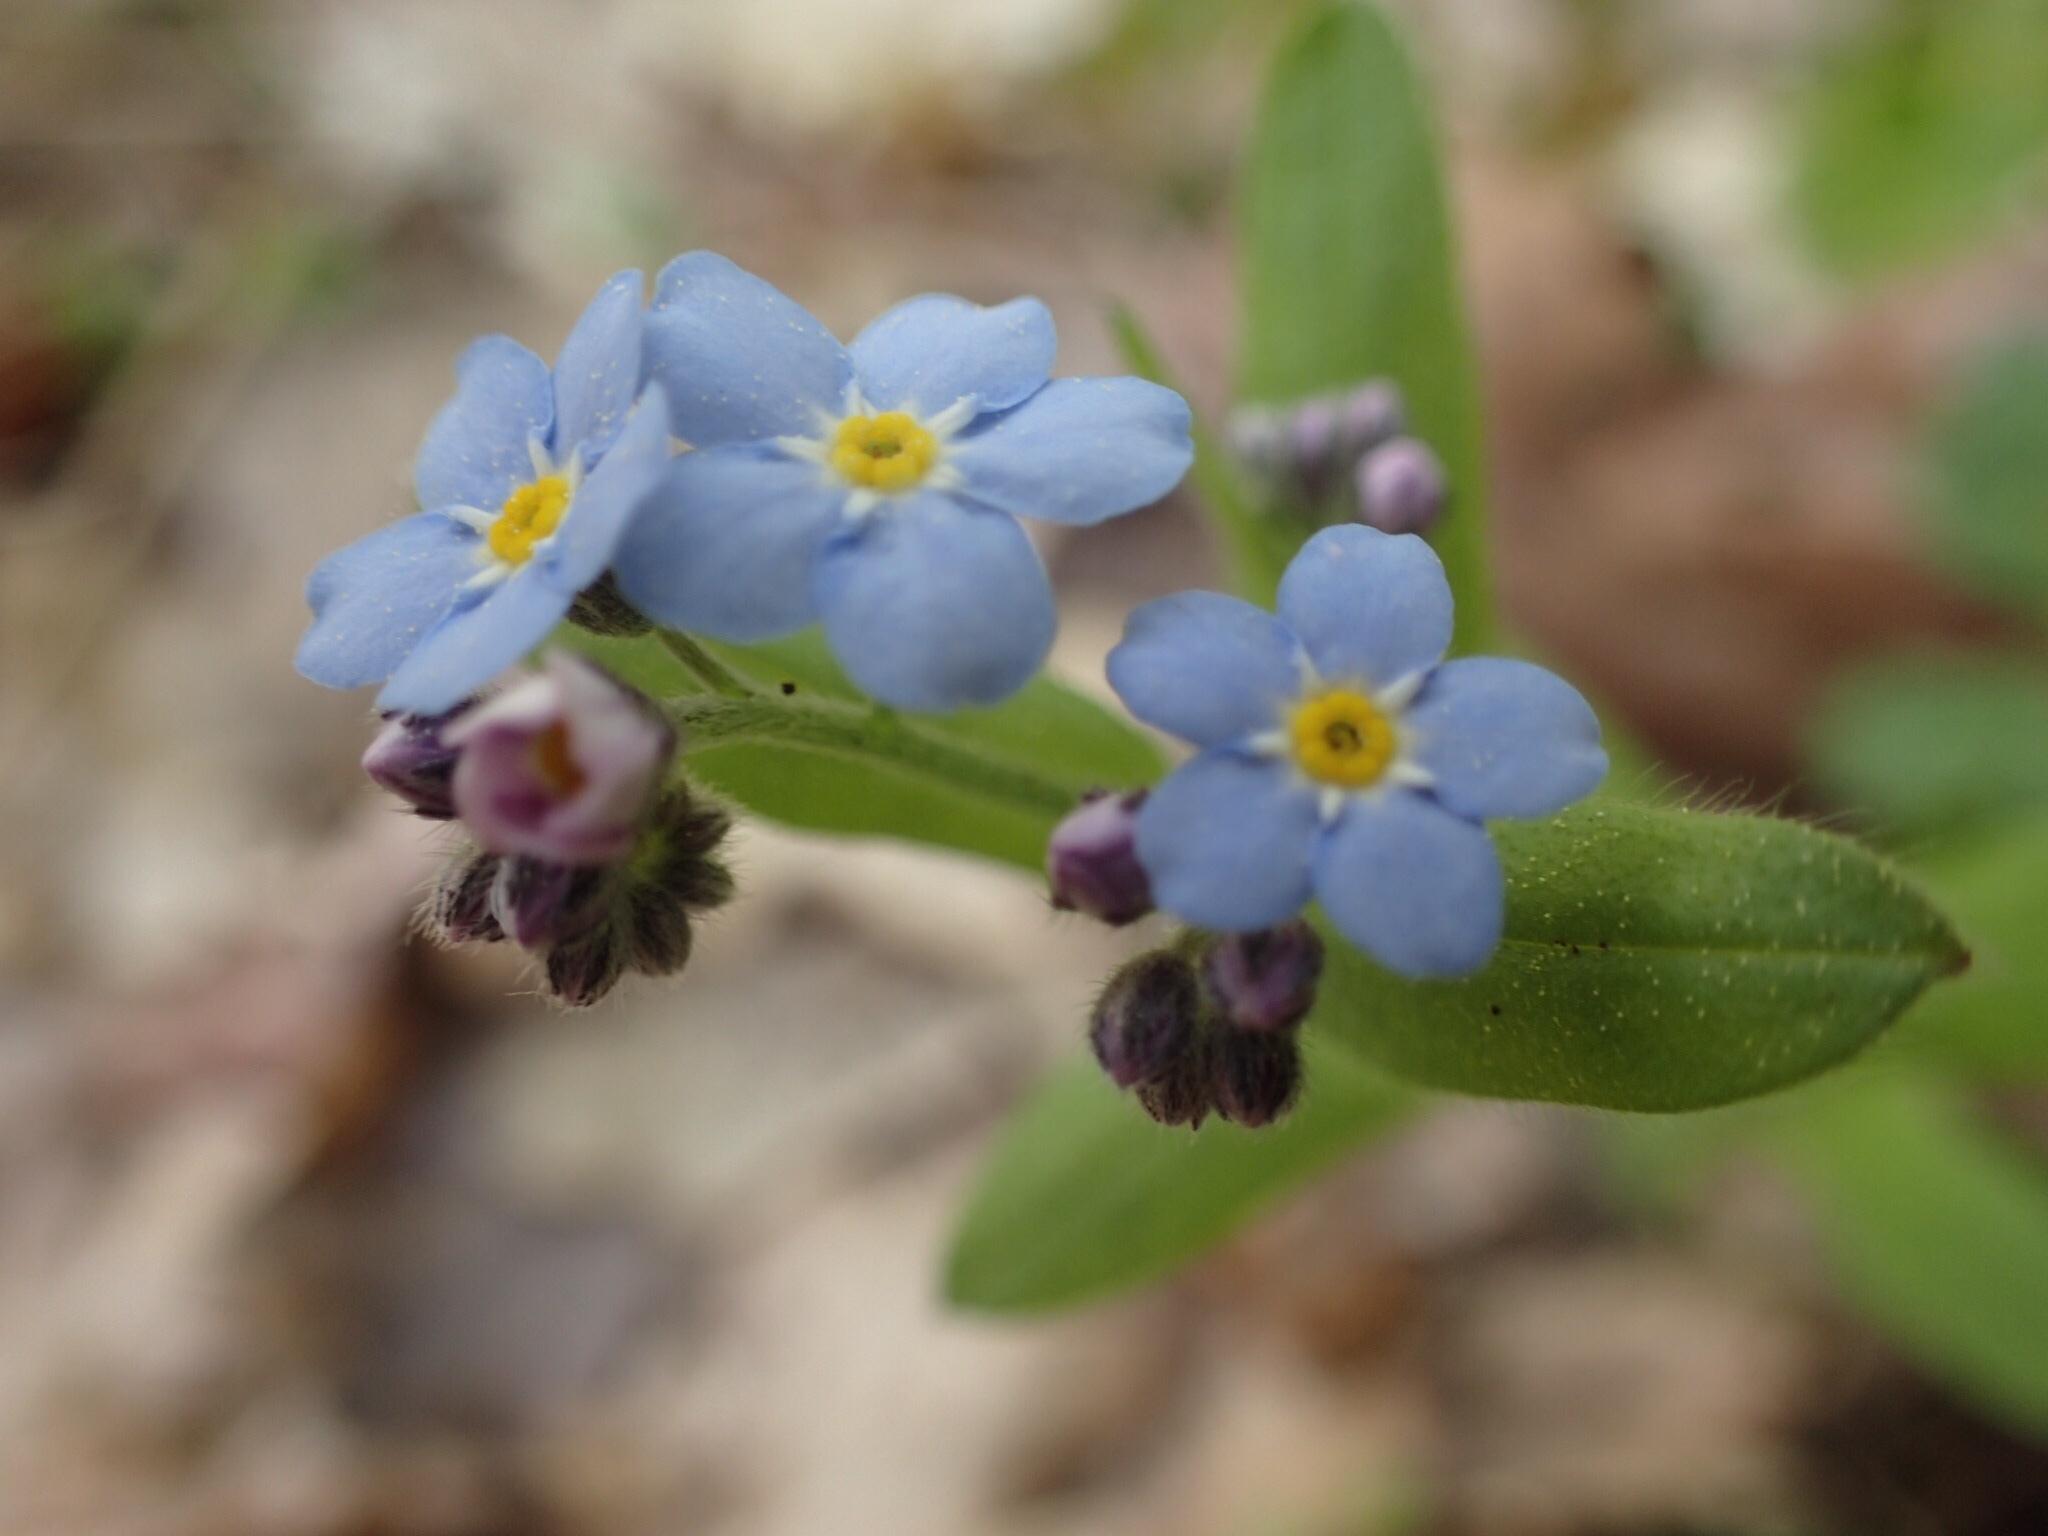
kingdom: Plantae
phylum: Tracheophyta
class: Magnoliopsida
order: Boraginales
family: Boraginaceae
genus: Myosotis
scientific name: Myosotis sylvatica
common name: Wood forget-me-not
